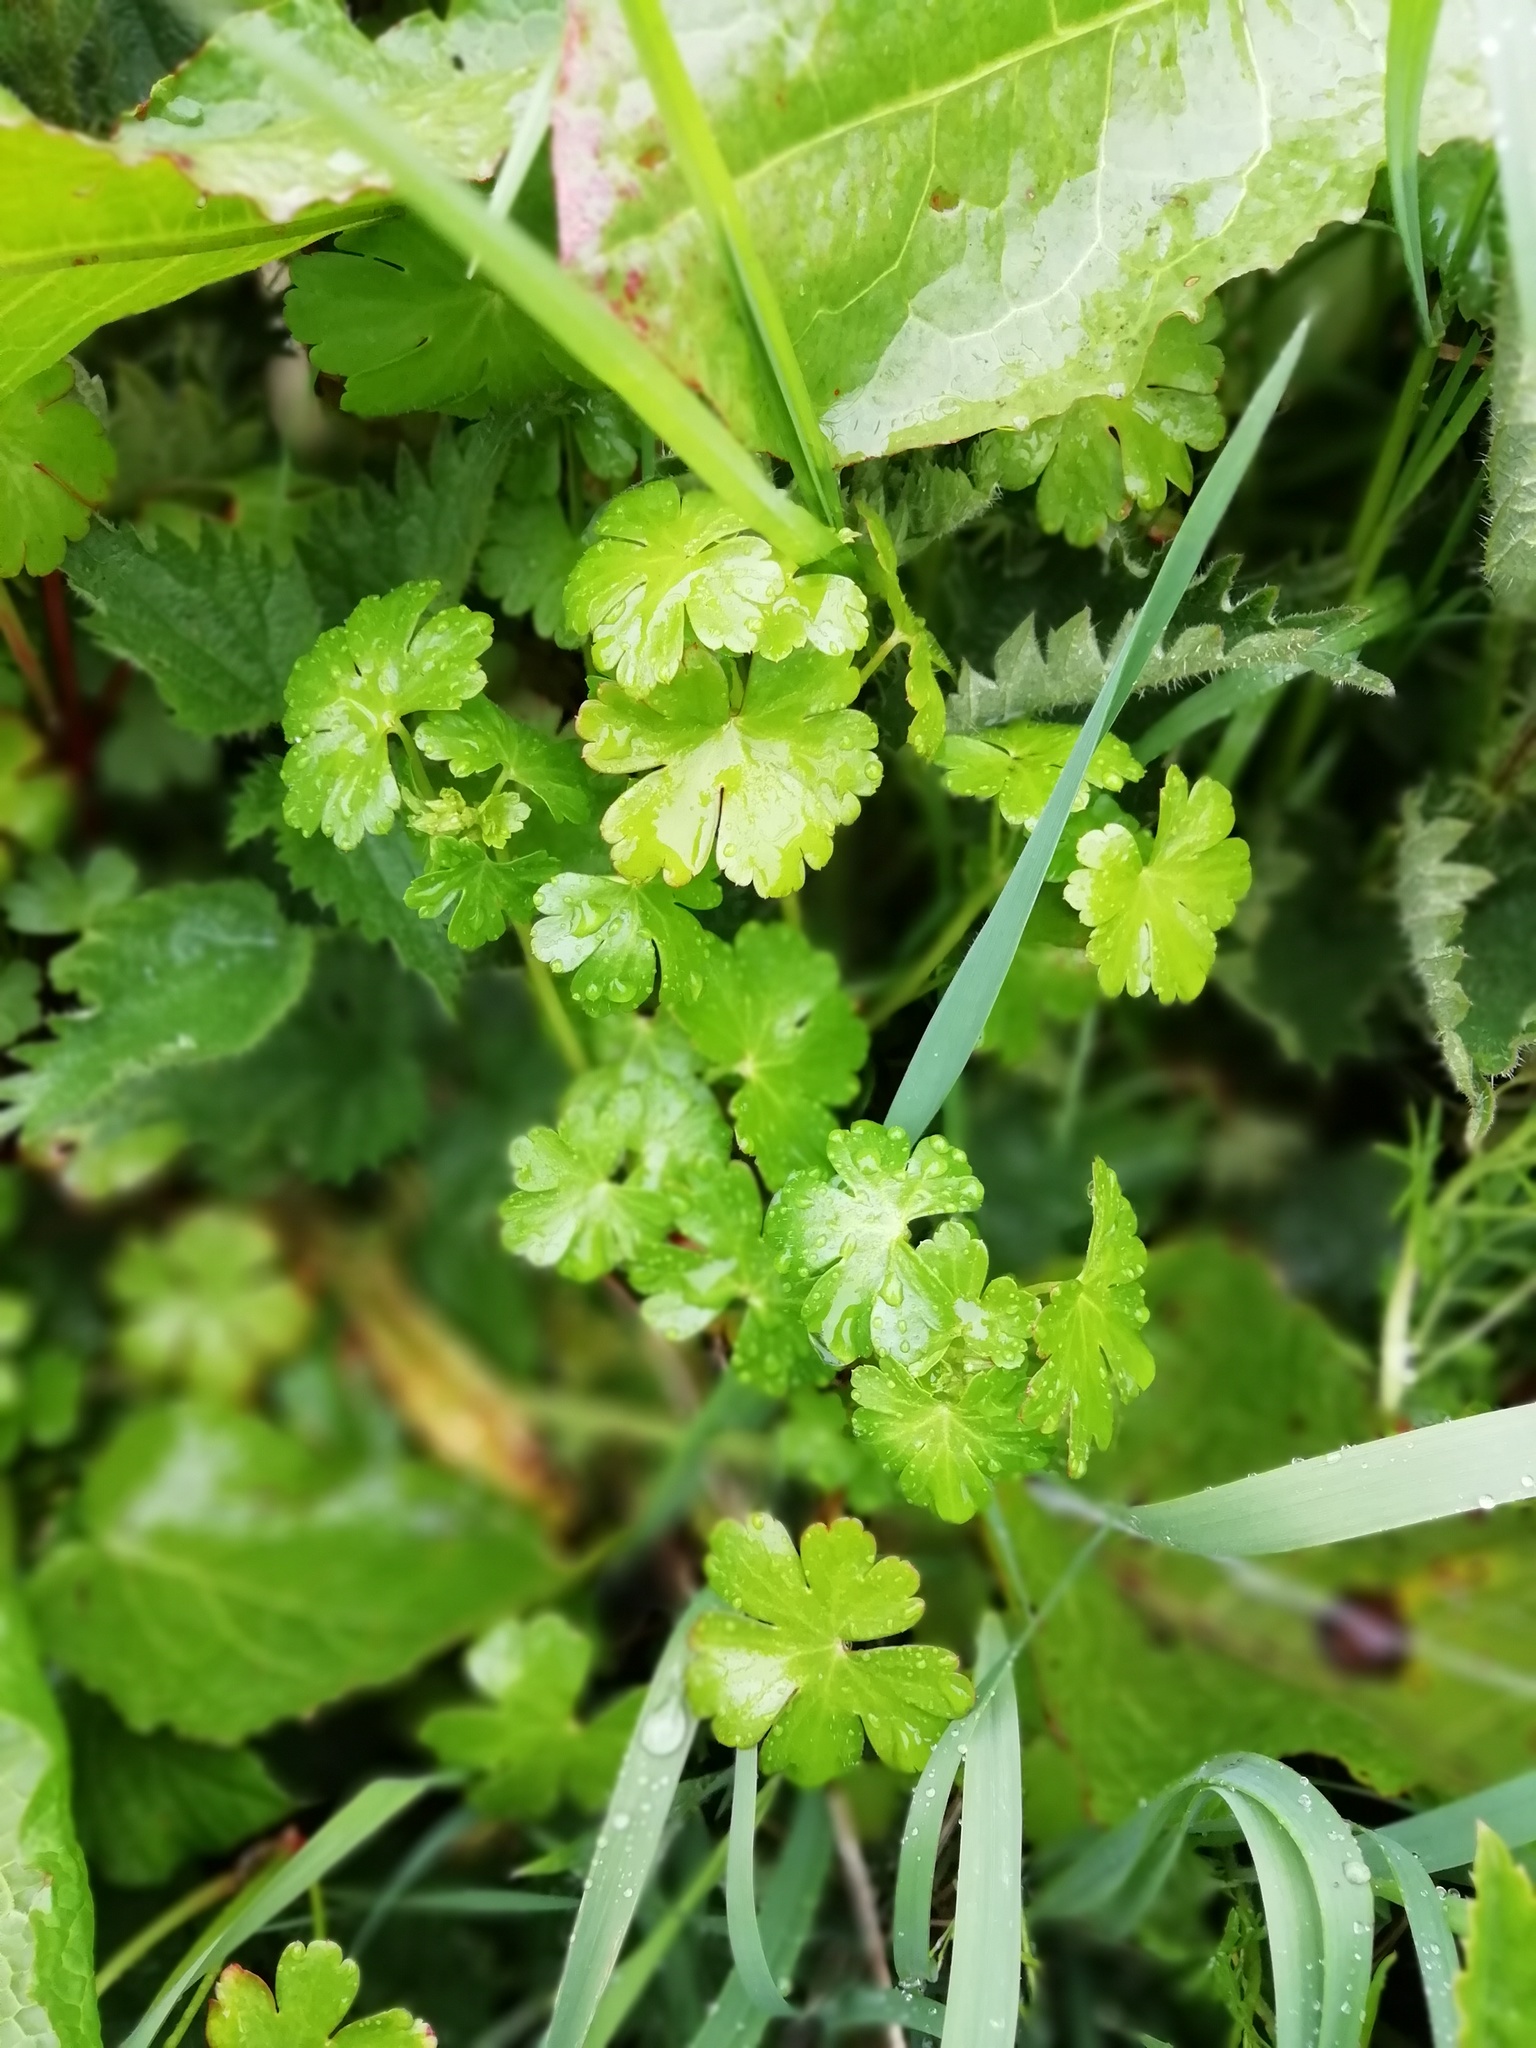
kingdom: Plantae
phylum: Tracheophyta
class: Magnoliopsida
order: Geraniales
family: Geraniaceae
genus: Geranium
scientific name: Geranium lucidum
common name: Shining crane's-bill
